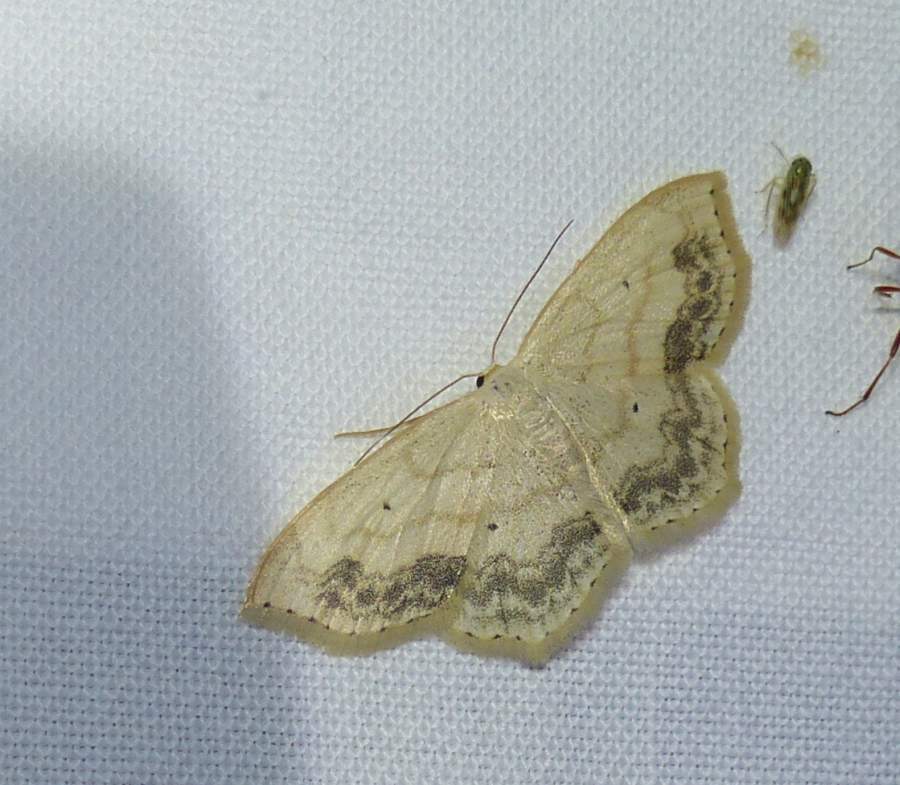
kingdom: Animalia
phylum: Arthropoda
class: Insecta
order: Lepidoptera
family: Geometridae
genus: Scopula
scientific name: Scopula limboundata
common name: Large lace border
